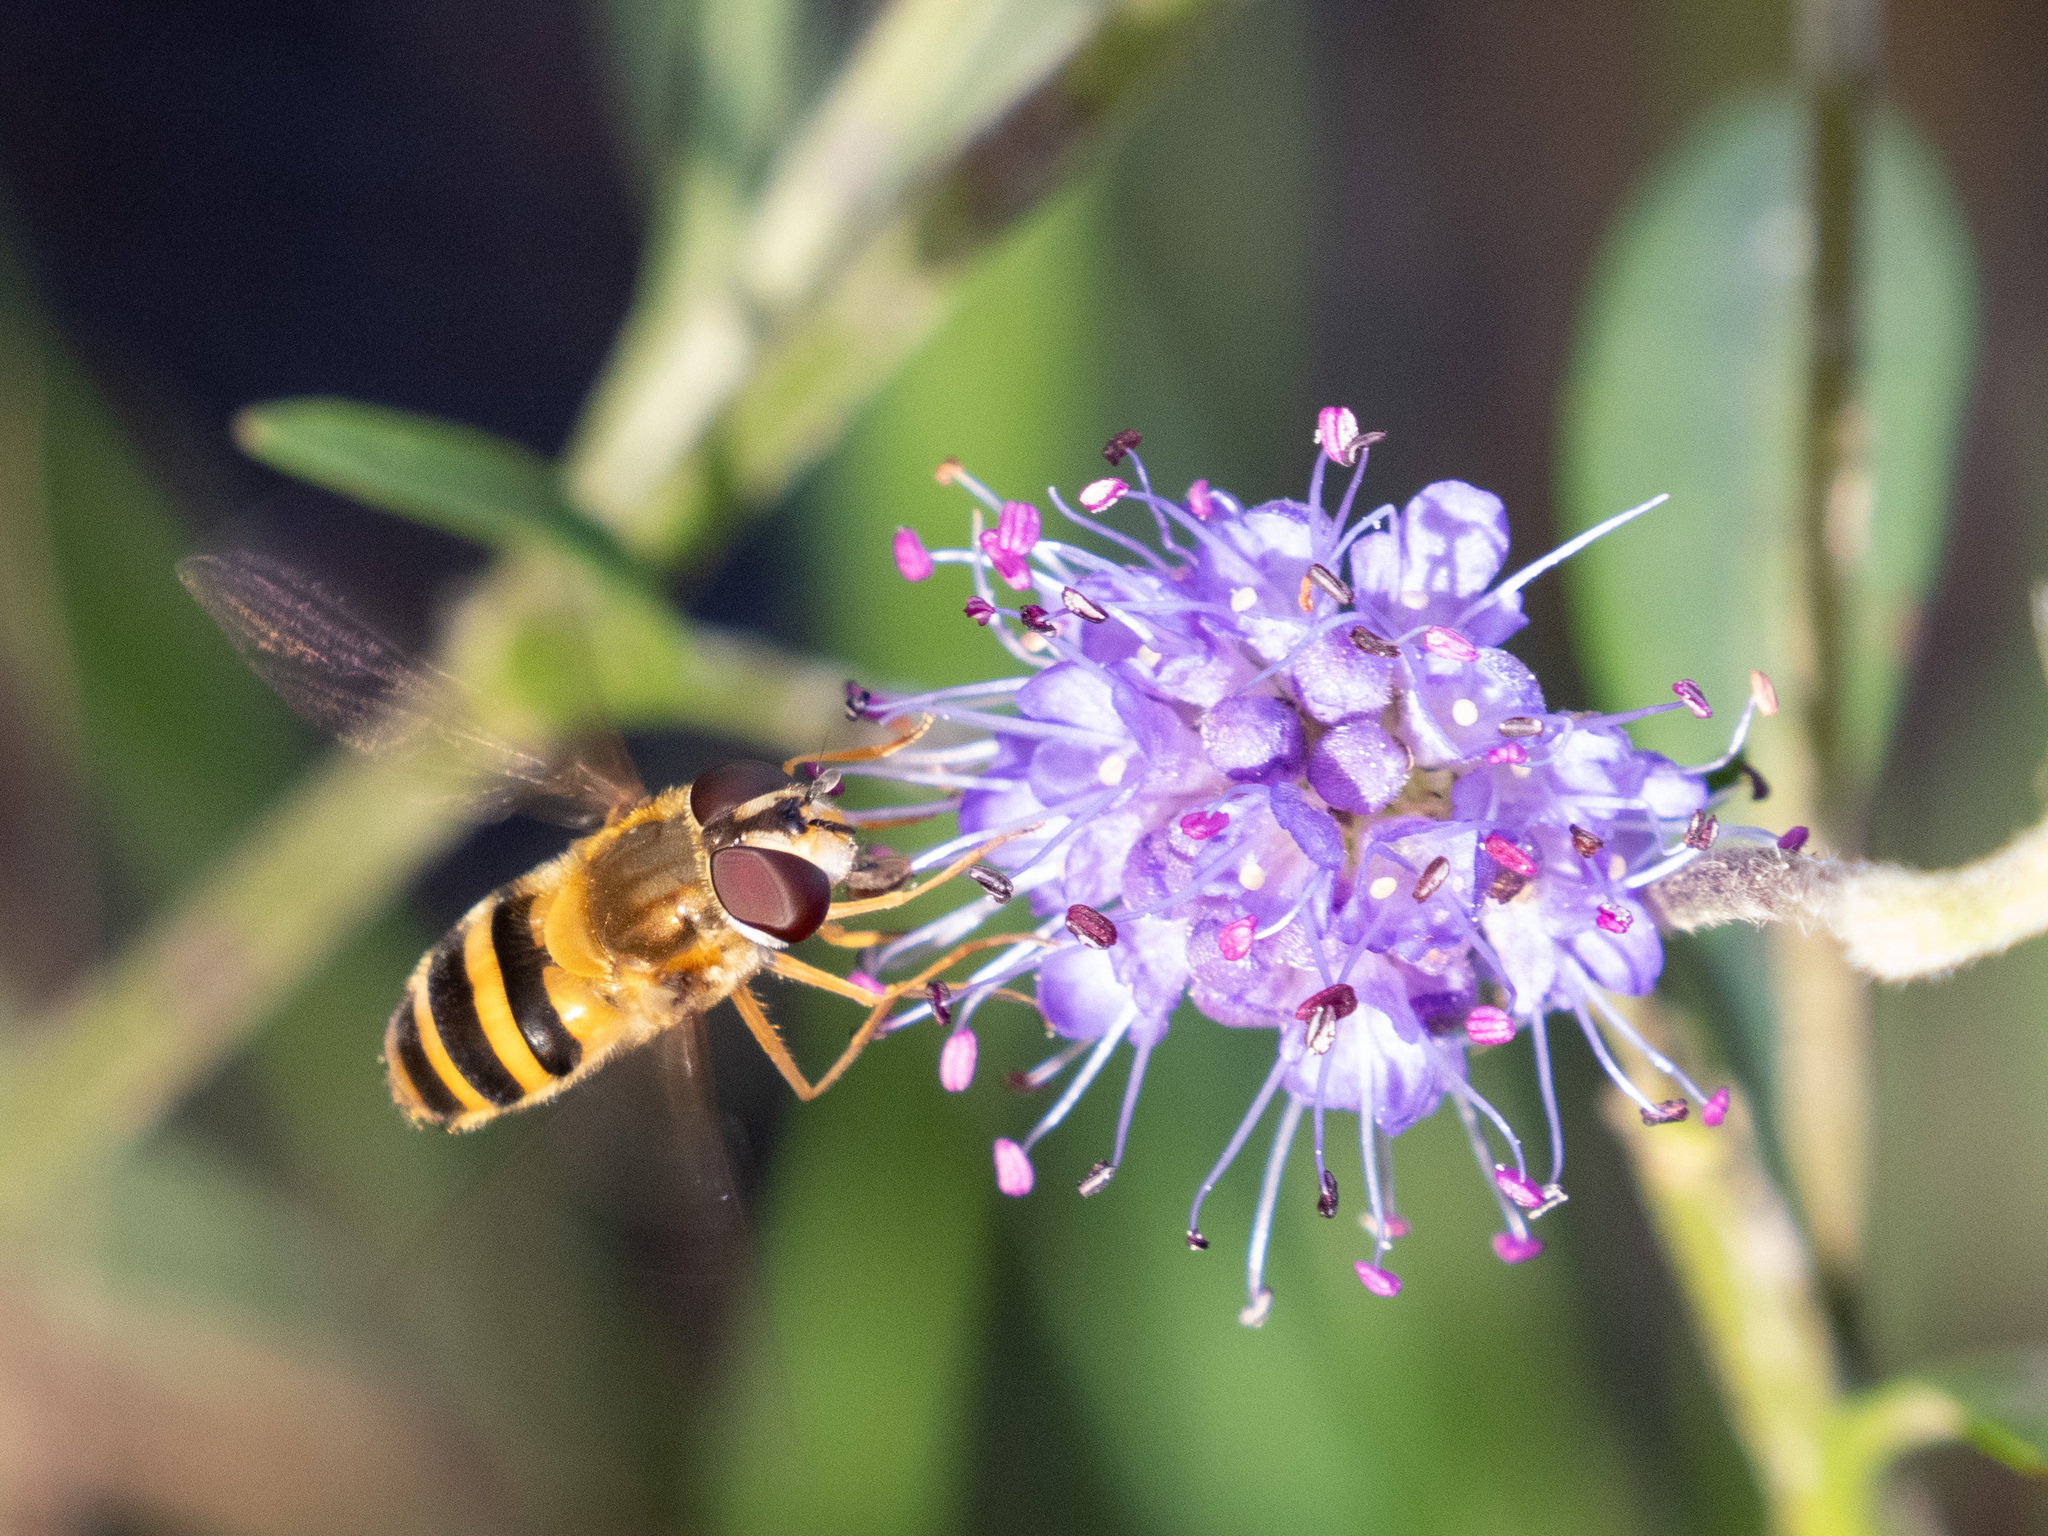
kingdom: Animalia
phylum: Arthropoda
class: Insecta
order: Diptera
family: Syrphidae
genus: Epistrophe
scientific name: Epistrophe grossulariae
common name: Black-horned smoothtail
